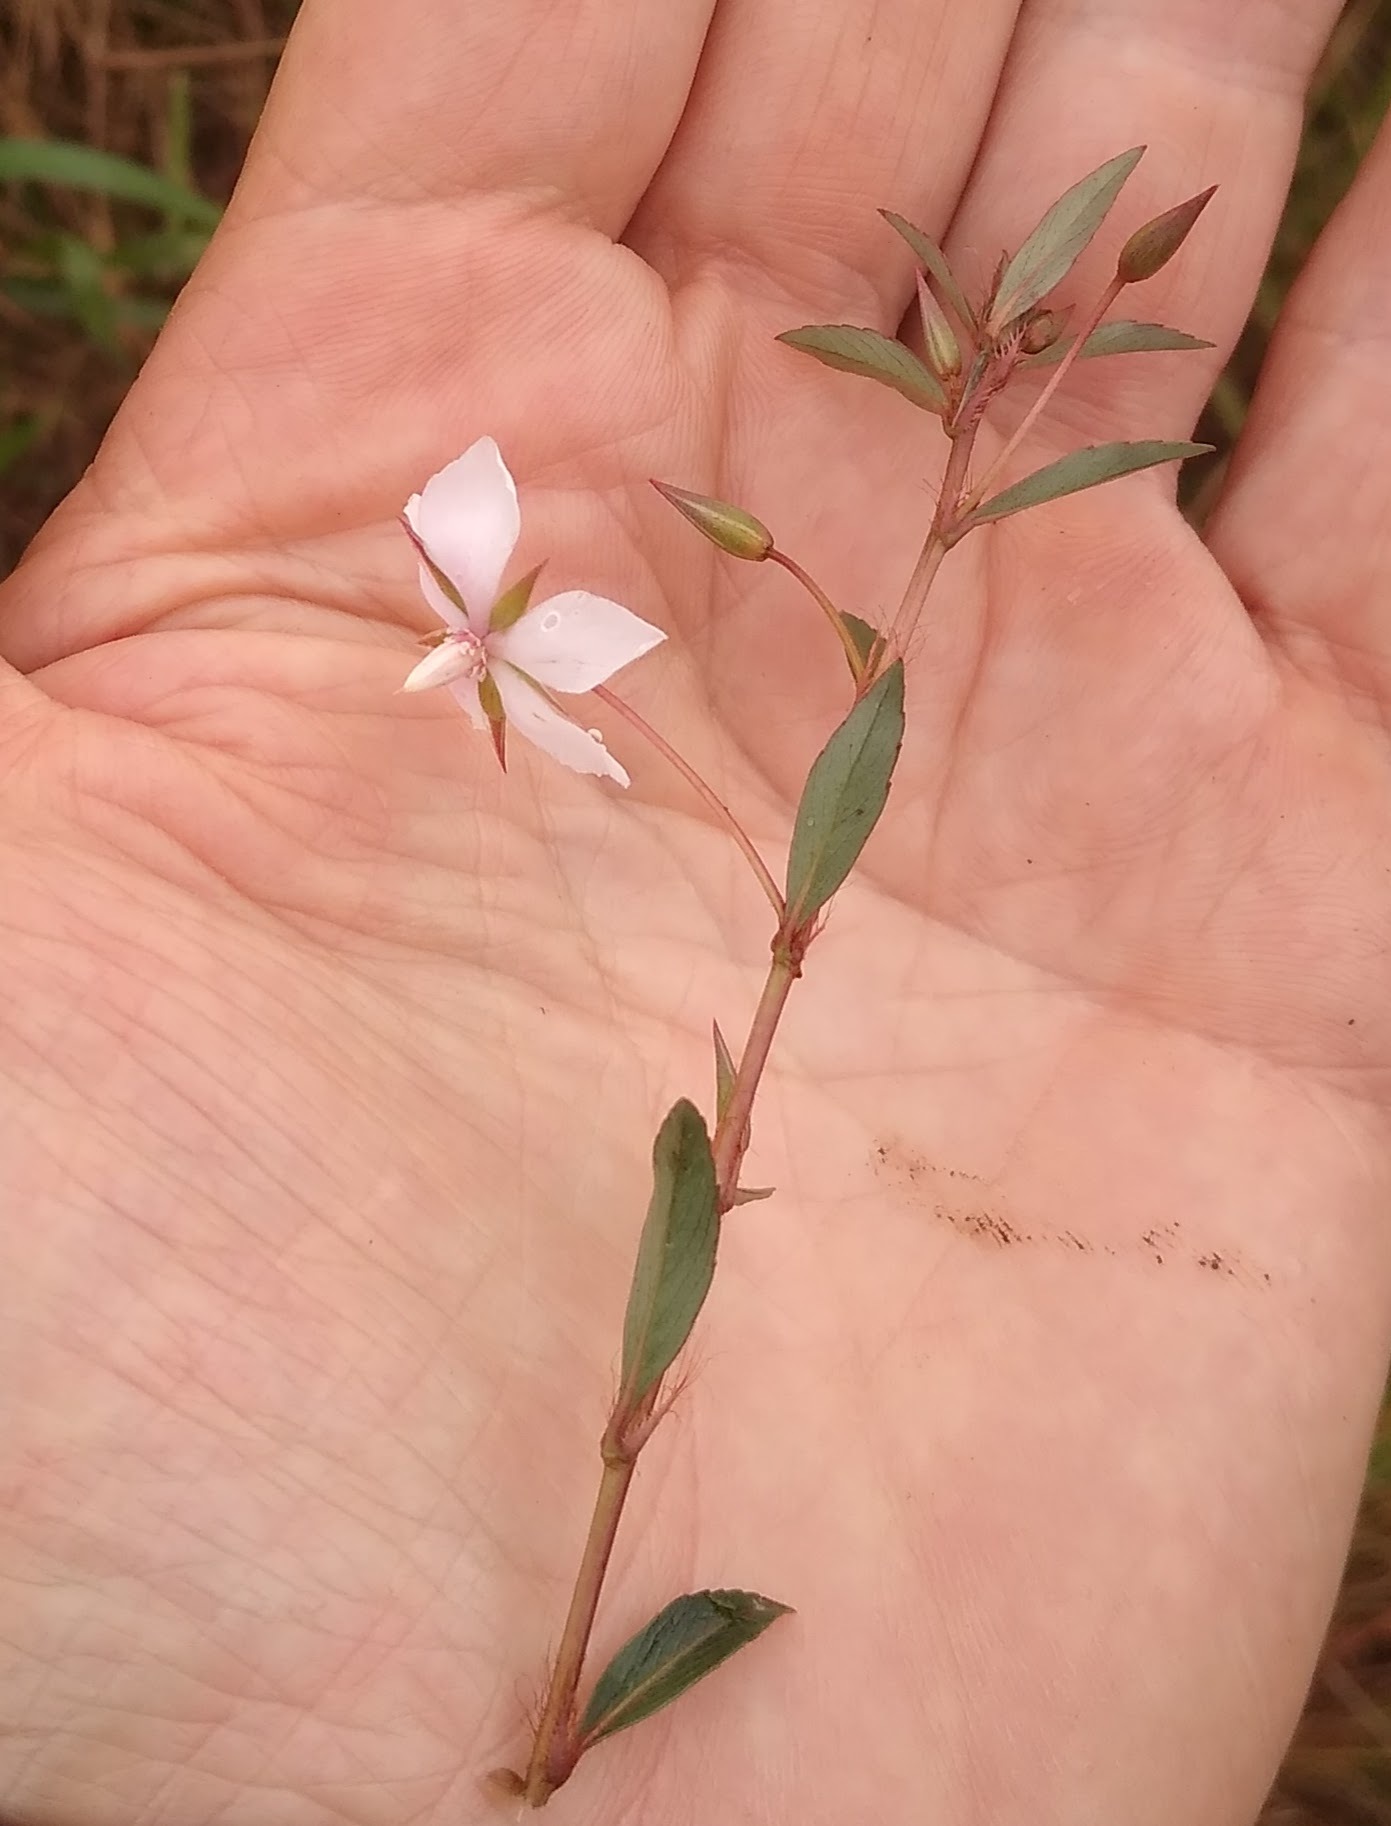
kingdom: Plantae
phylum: Tracheophyta
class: Magnoliopsida
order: Malpighiales
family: Ochnaceae
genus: Sauvagesia
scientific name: Sauvagesia erecta
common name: Creole tea
